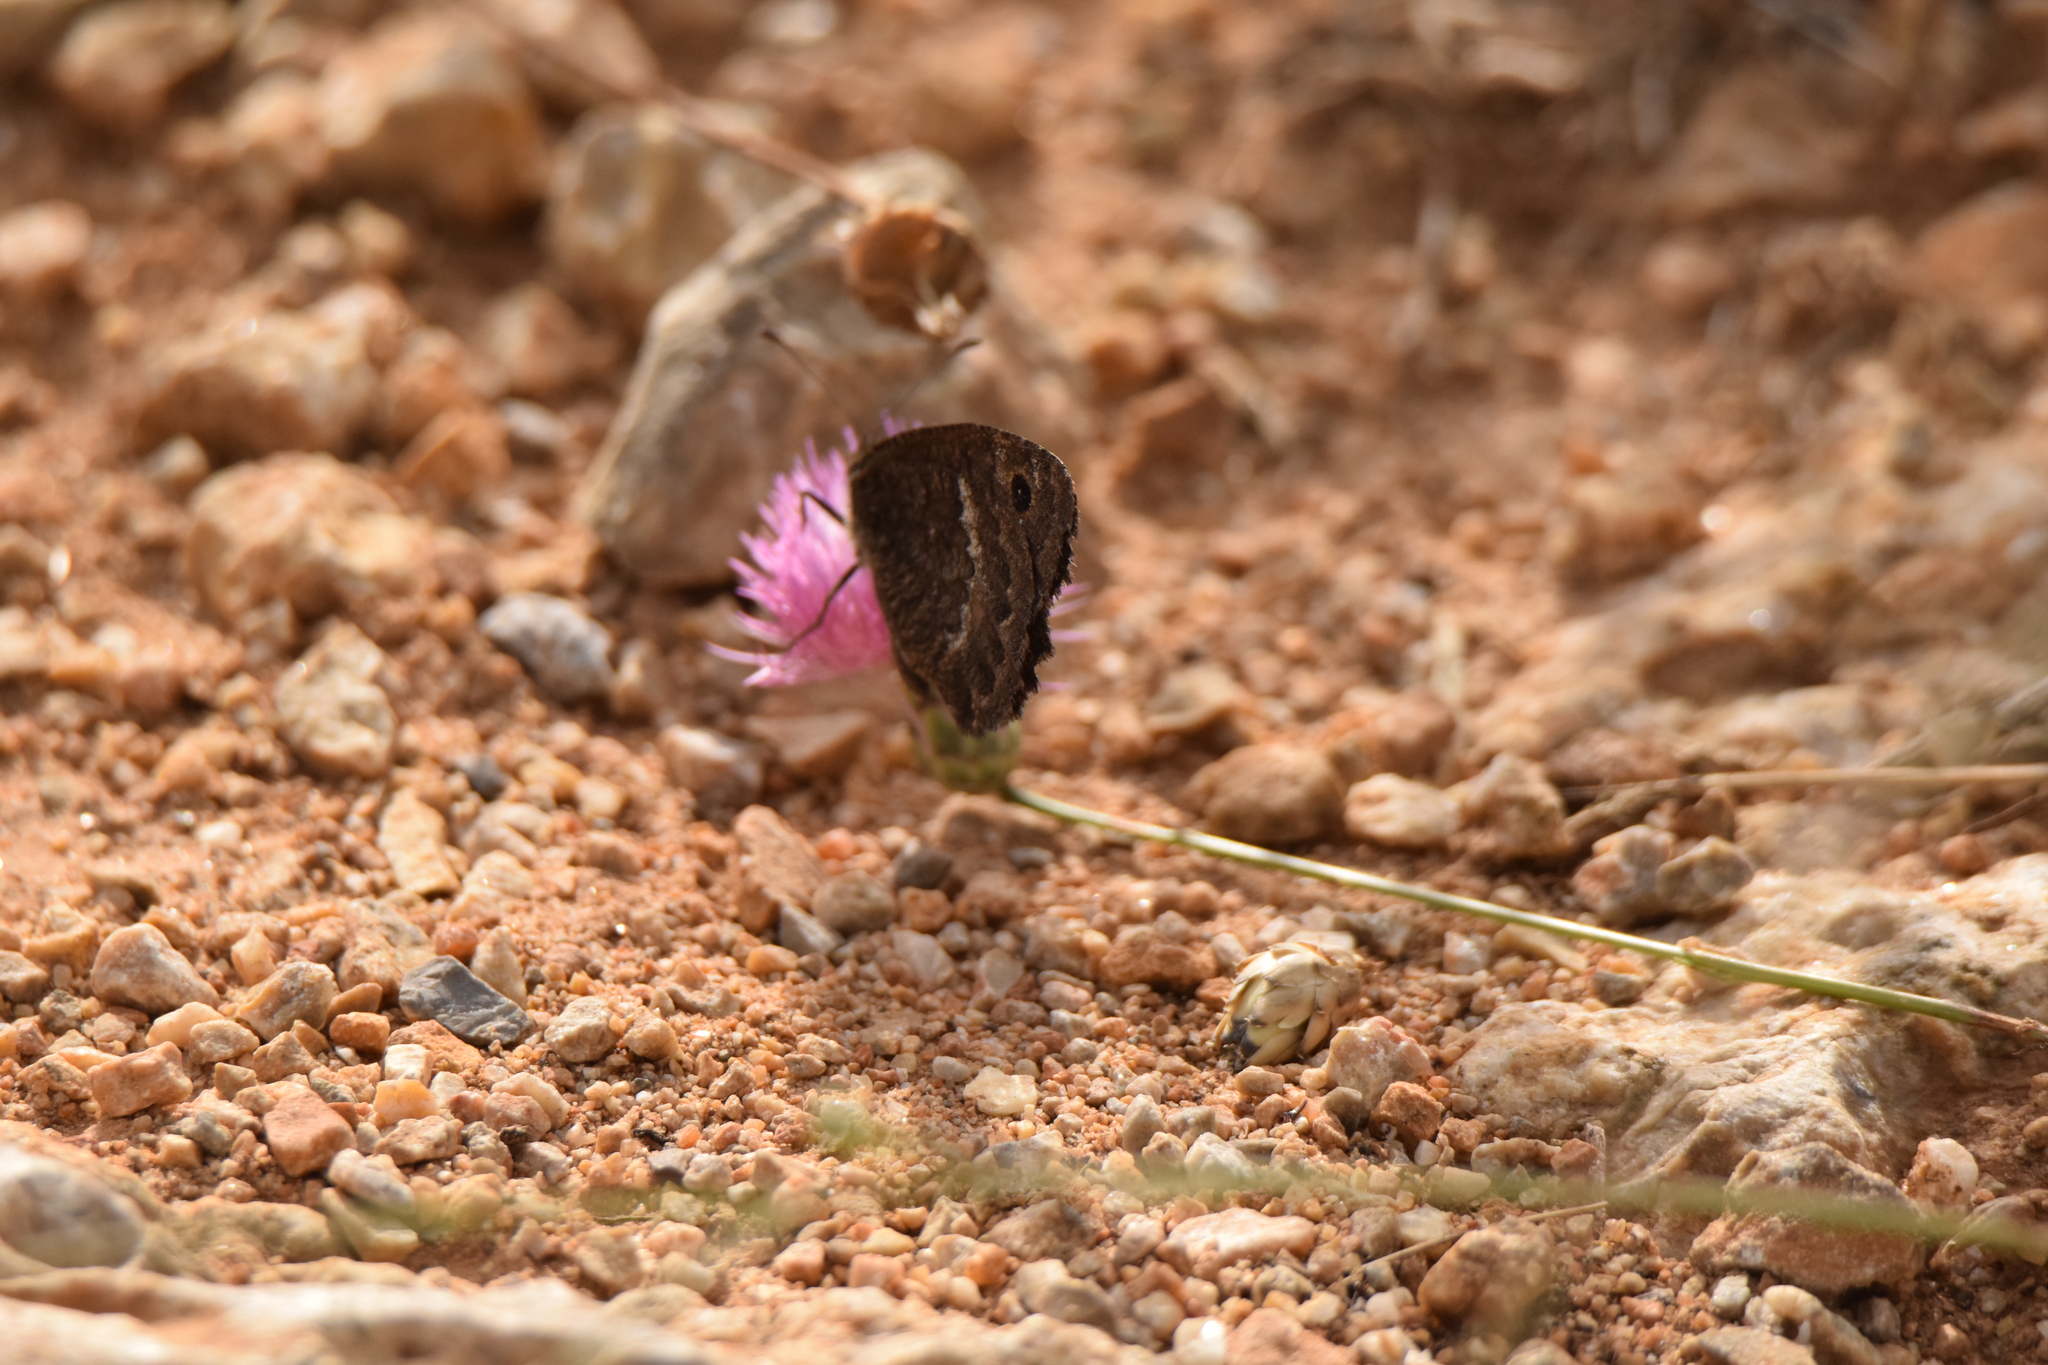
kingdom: Animalia
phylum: Arthropoda
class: Insecta
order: Lepidoptera
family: Nymphalidae
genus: Satyrus
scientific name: Satyrus actaea
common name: Black satyr
